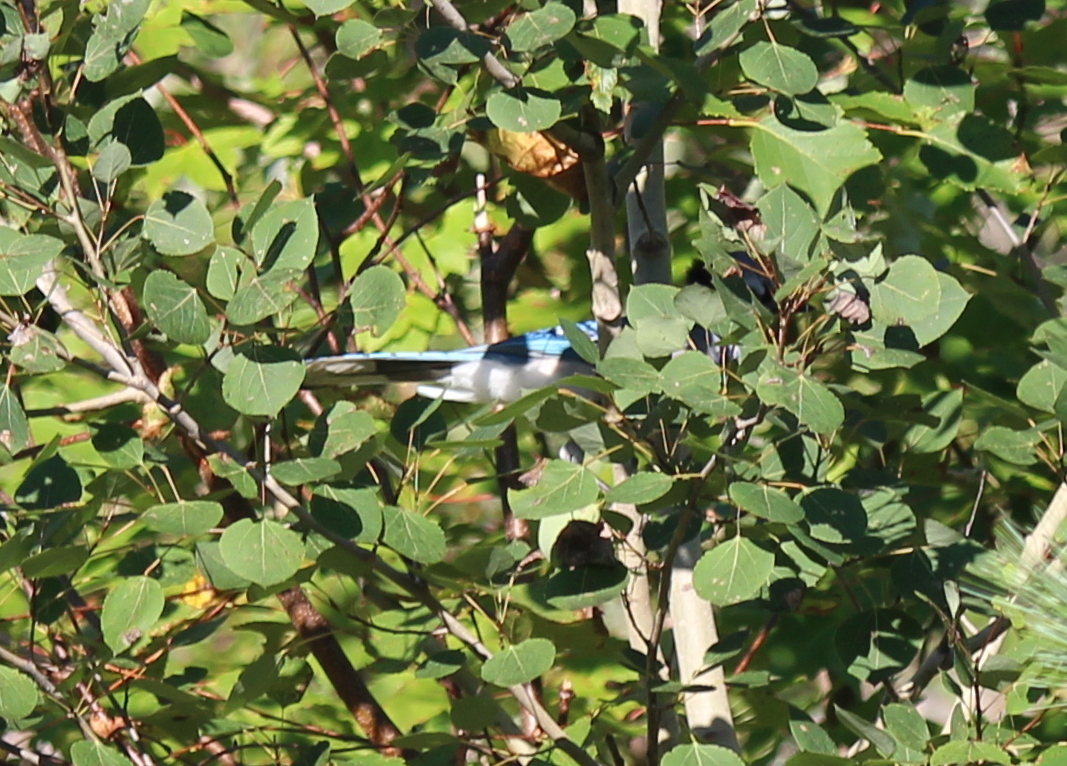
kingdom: Animalia
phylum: Chordata
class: Aves
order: Passeriformes
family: Corvidae
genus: Cyanocitta
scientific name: Cyanocitta cristata
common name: Blue jay
